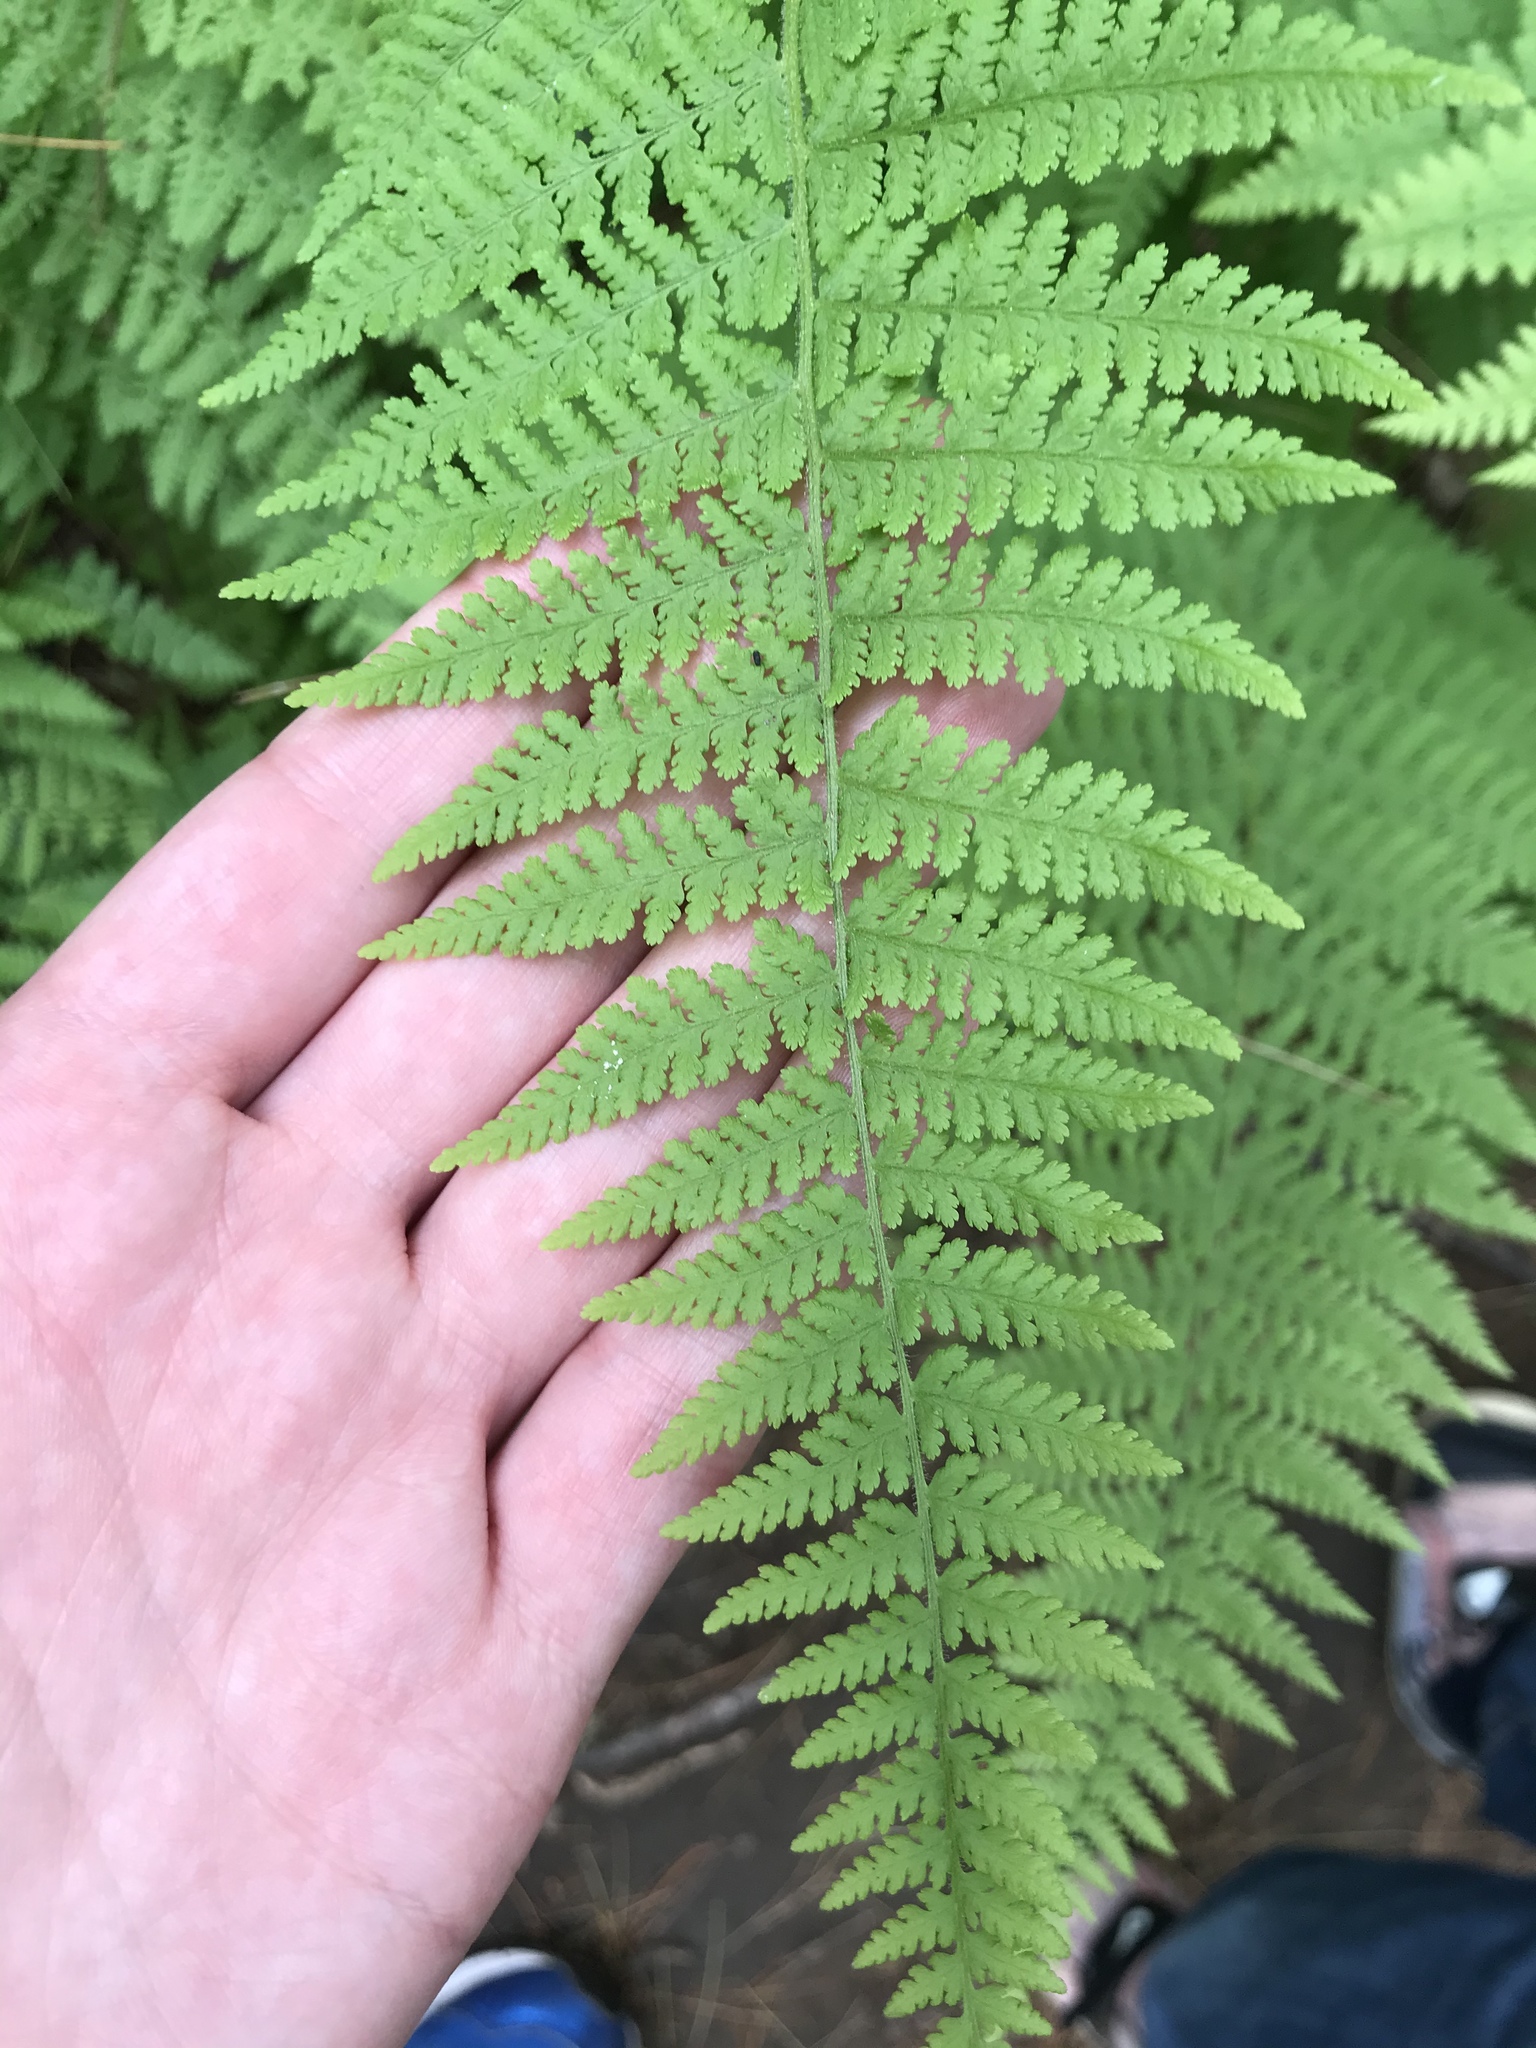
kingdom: Plantae
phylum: Tracheophyta
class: Polypodiopsida
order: Polypodiales
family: Dennstaedtiaceae
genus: Sitobolium
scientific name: Sitobolium punctilobum
